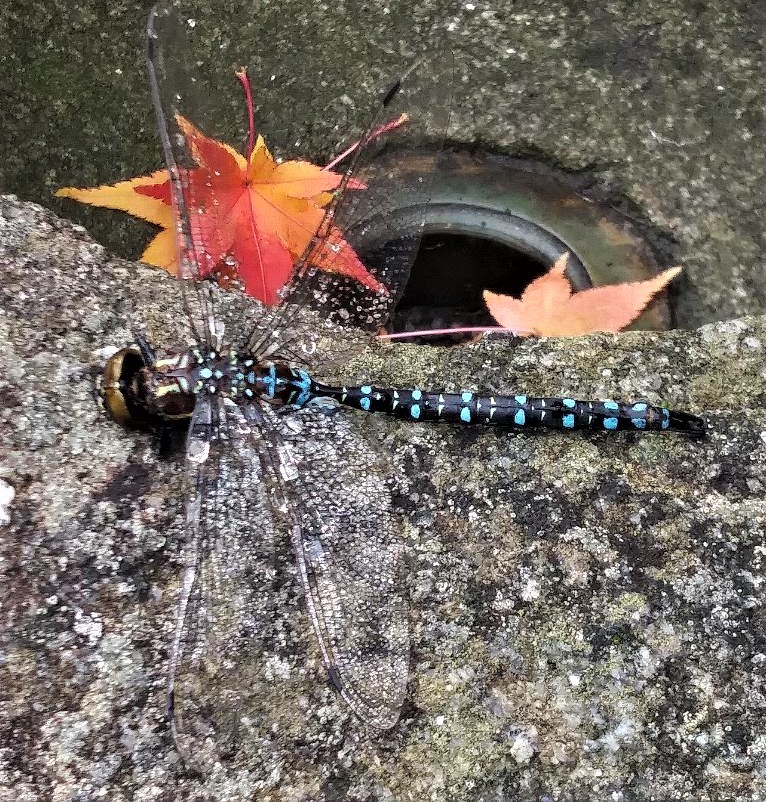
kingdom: Animalia
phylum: Arthropoda
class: Insecta
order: Odonata
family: Aeshnidae
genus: Aeshna
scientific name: Aeshna palmata
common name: Paddle-tailed darner
